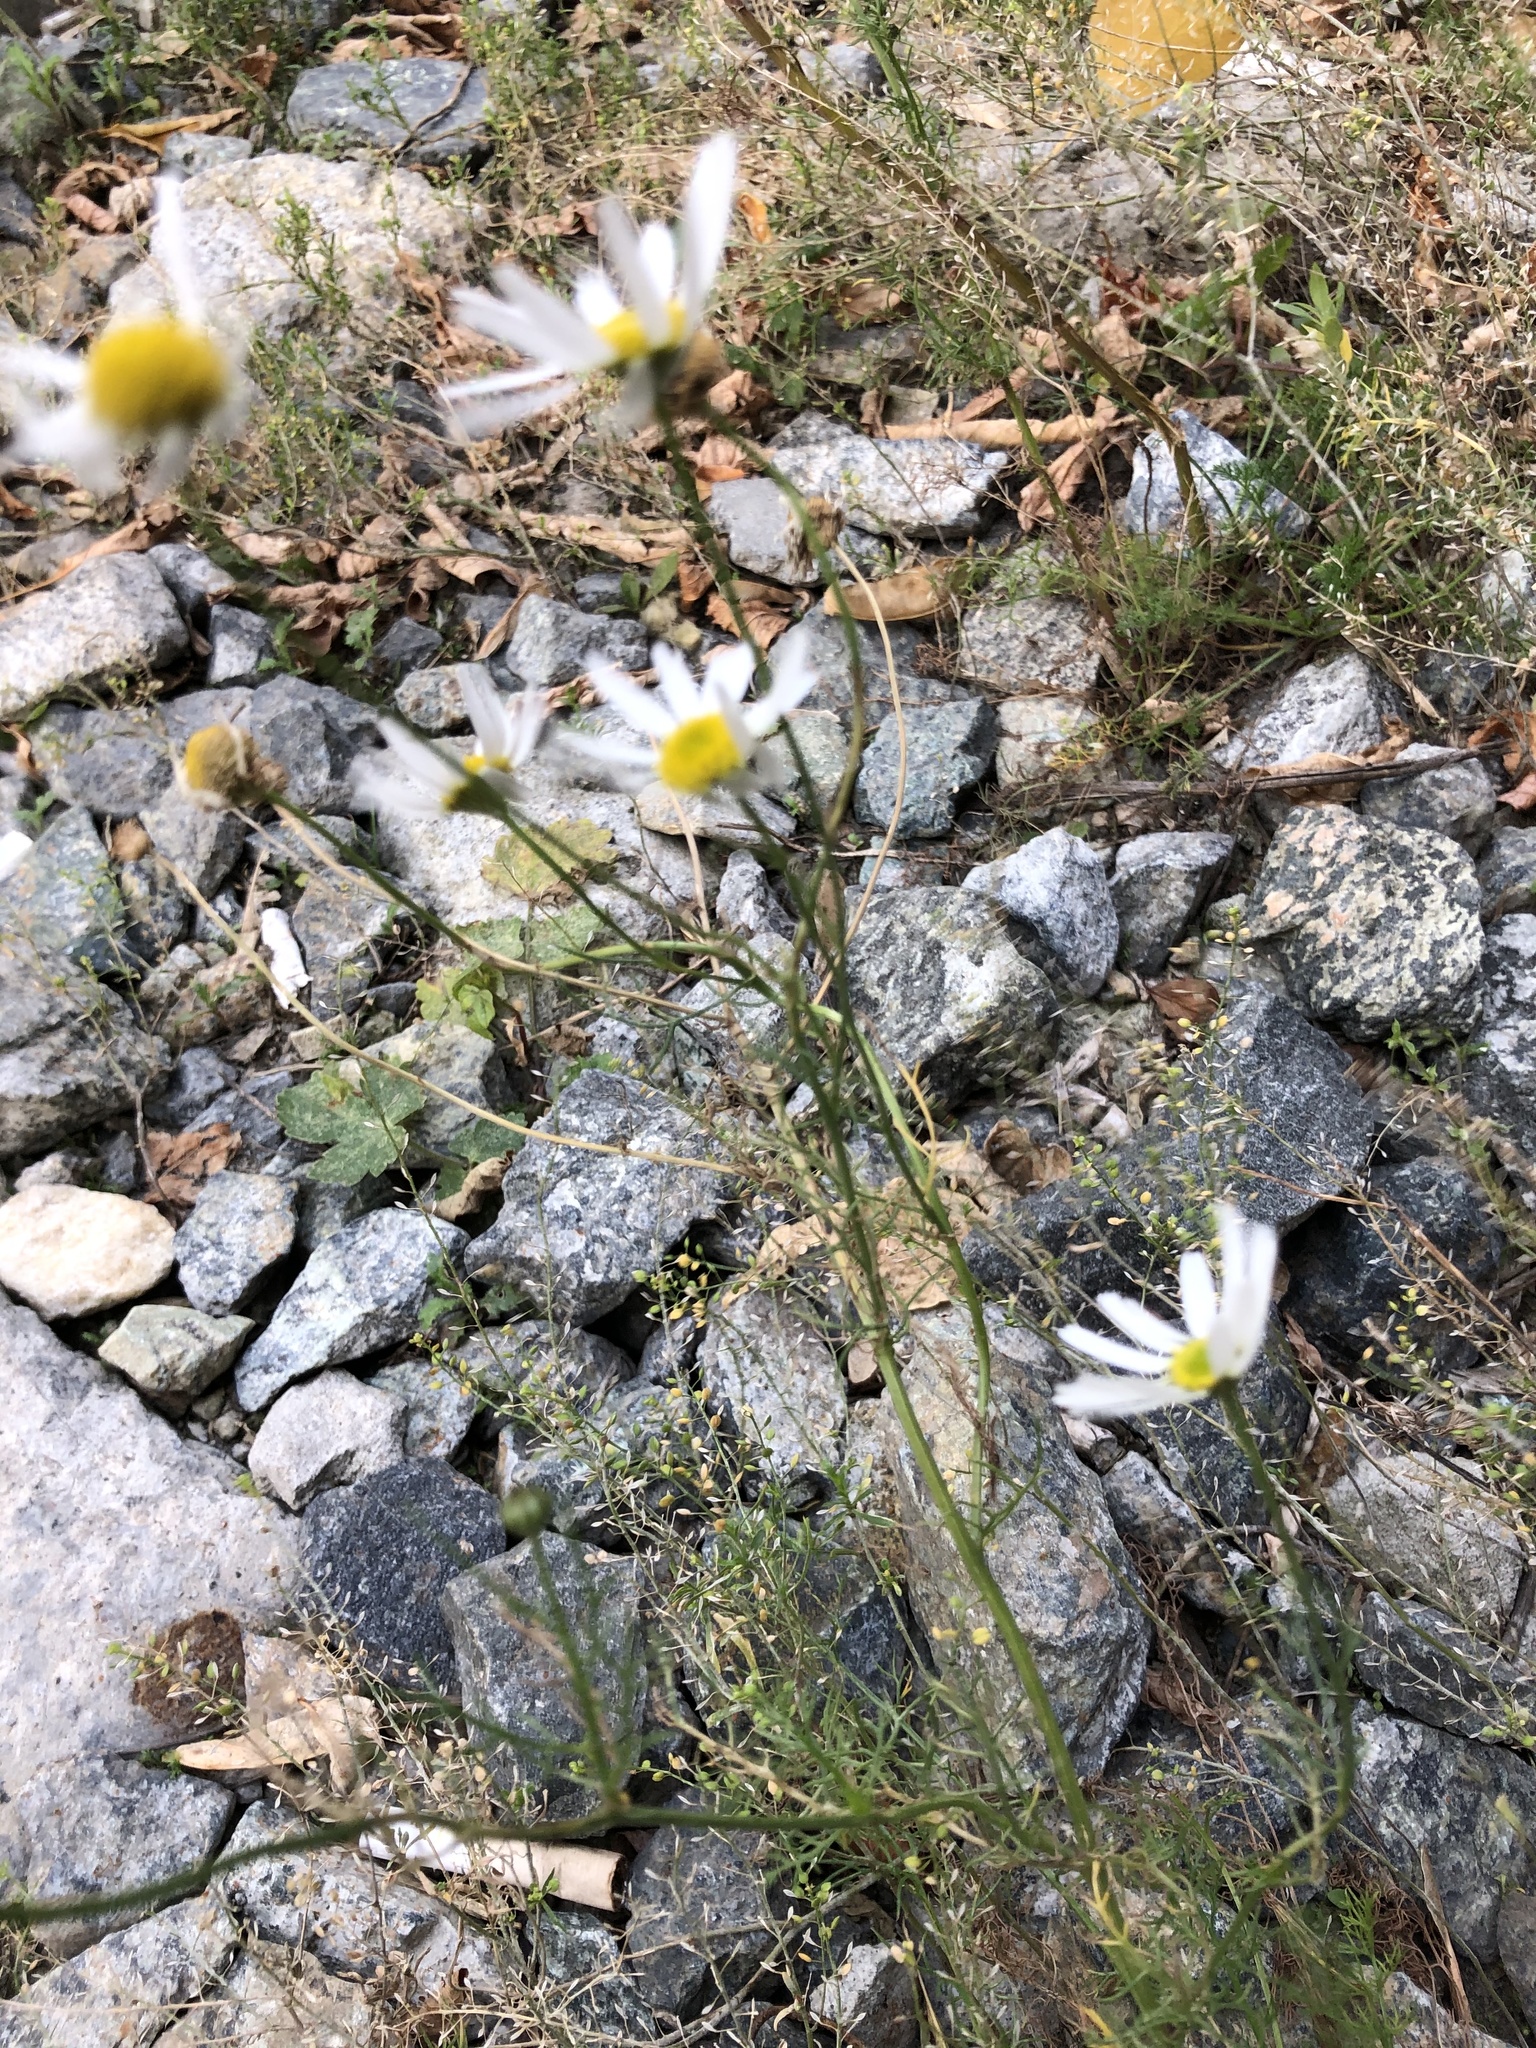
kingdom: Plantae
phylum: Tracheophyta
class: Magnoliopsida
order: Asterales
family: Asteraceae
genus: Tripleurospermum
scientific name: Tripleurospermum inodorum
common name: Scentless mayweed
